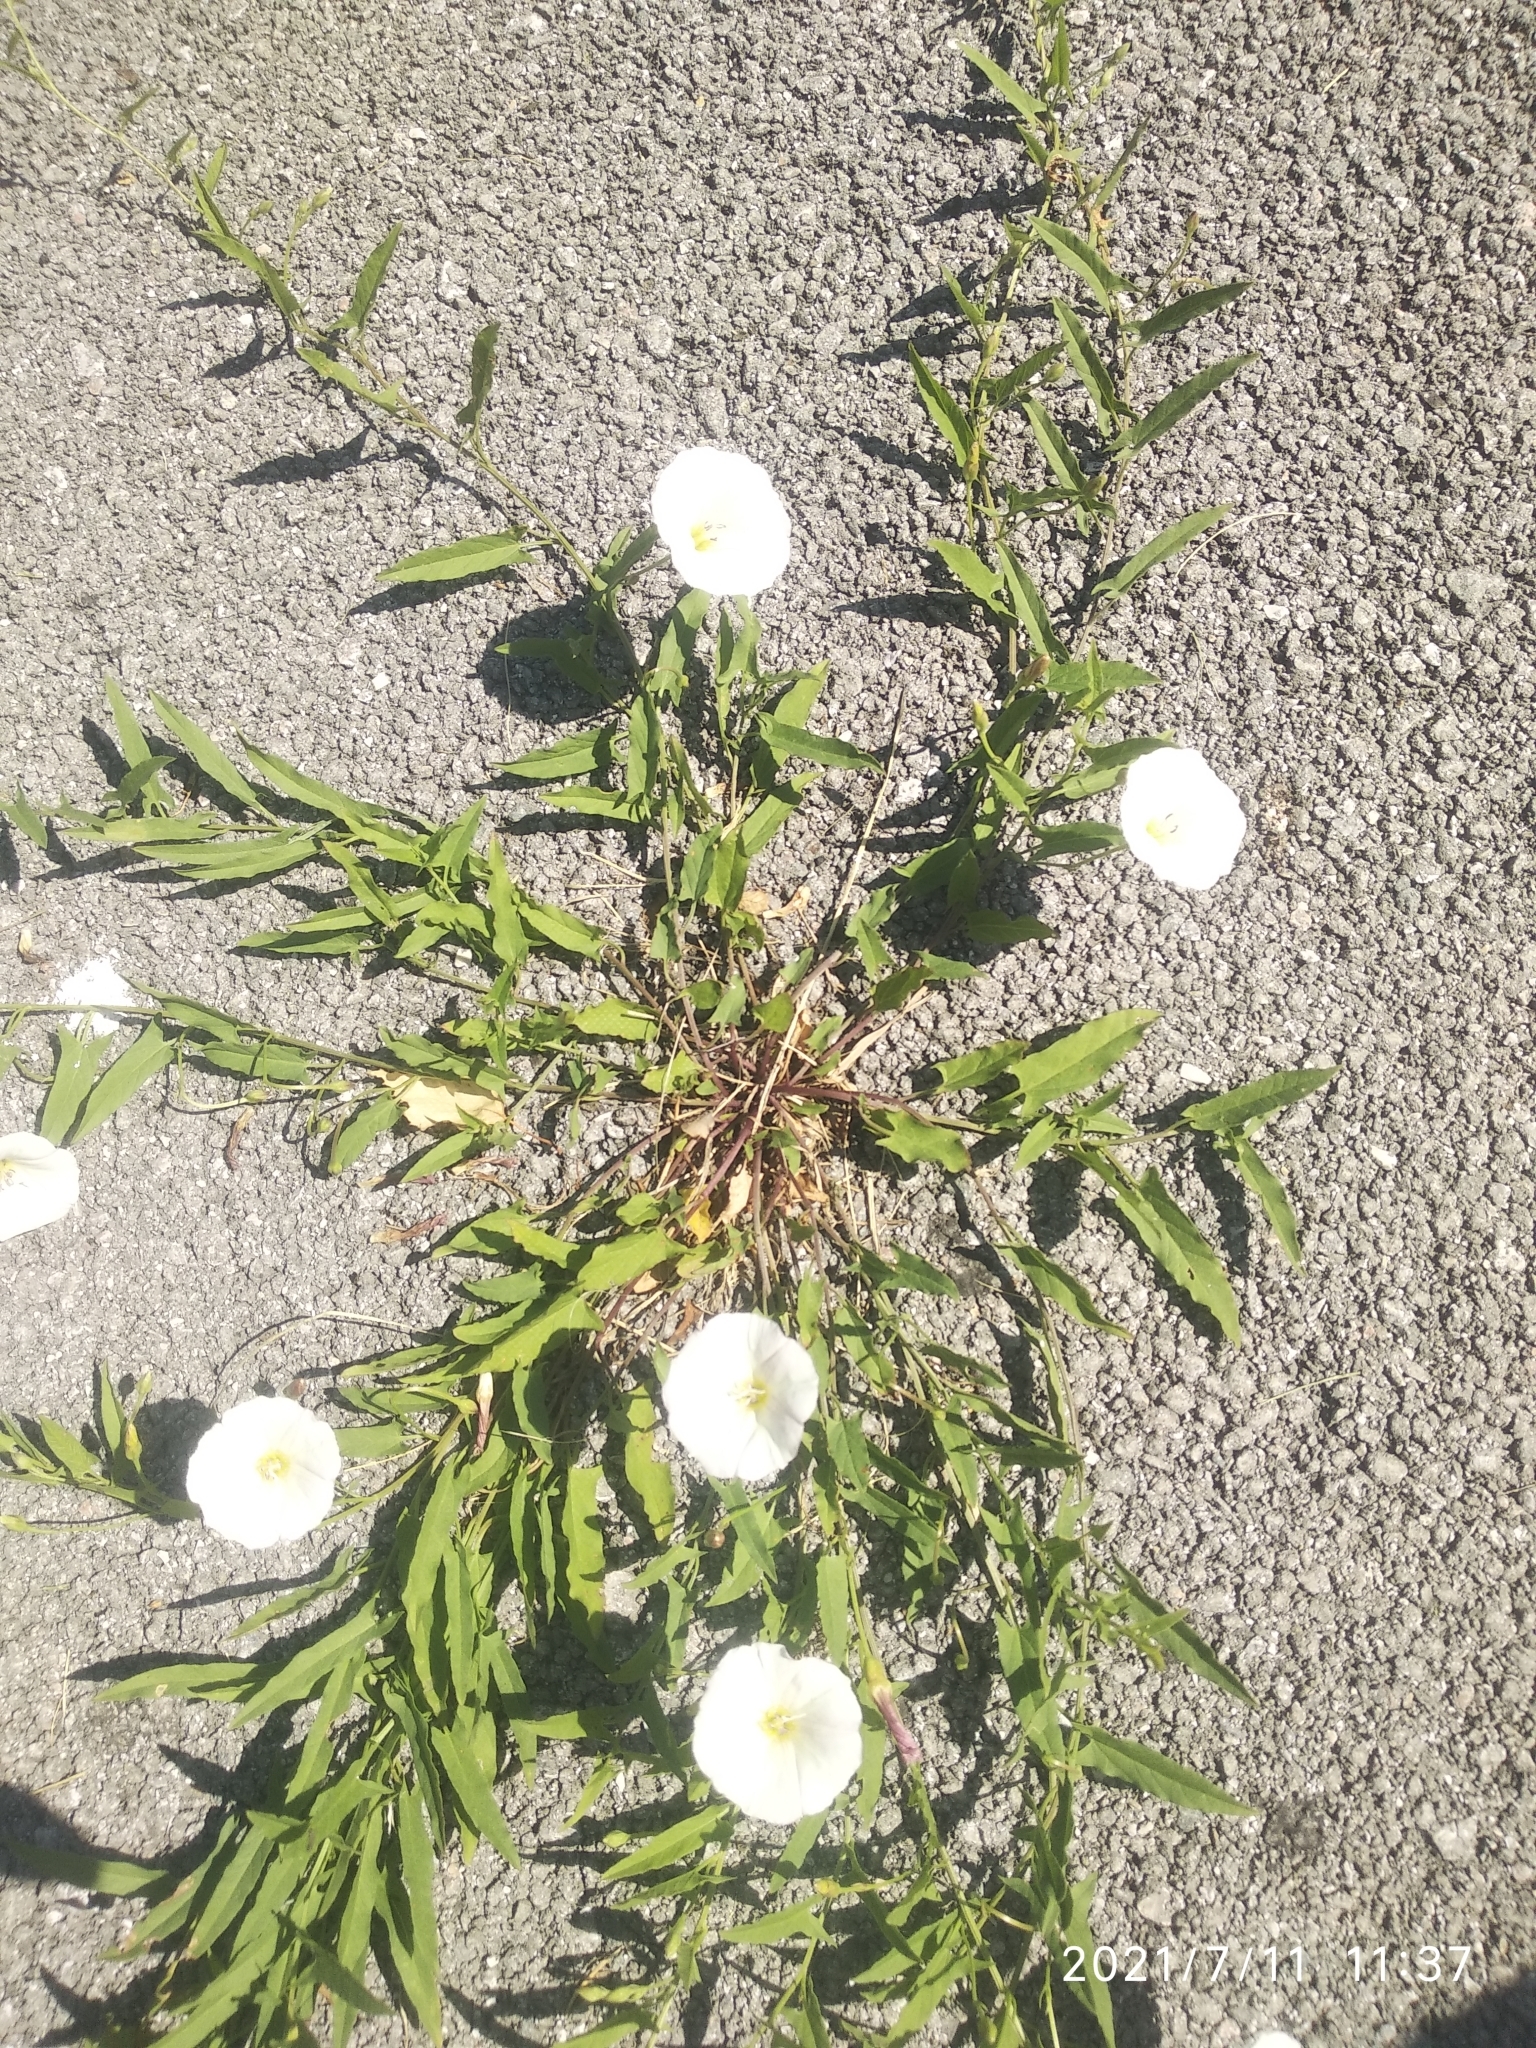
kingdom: Plantae
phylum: Tracheophyta
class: Magnoliopsida
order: Solanales
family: Convolvulaceae
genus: Convolvulus
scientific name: Convolvulus arvensis
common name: Field bindweed
